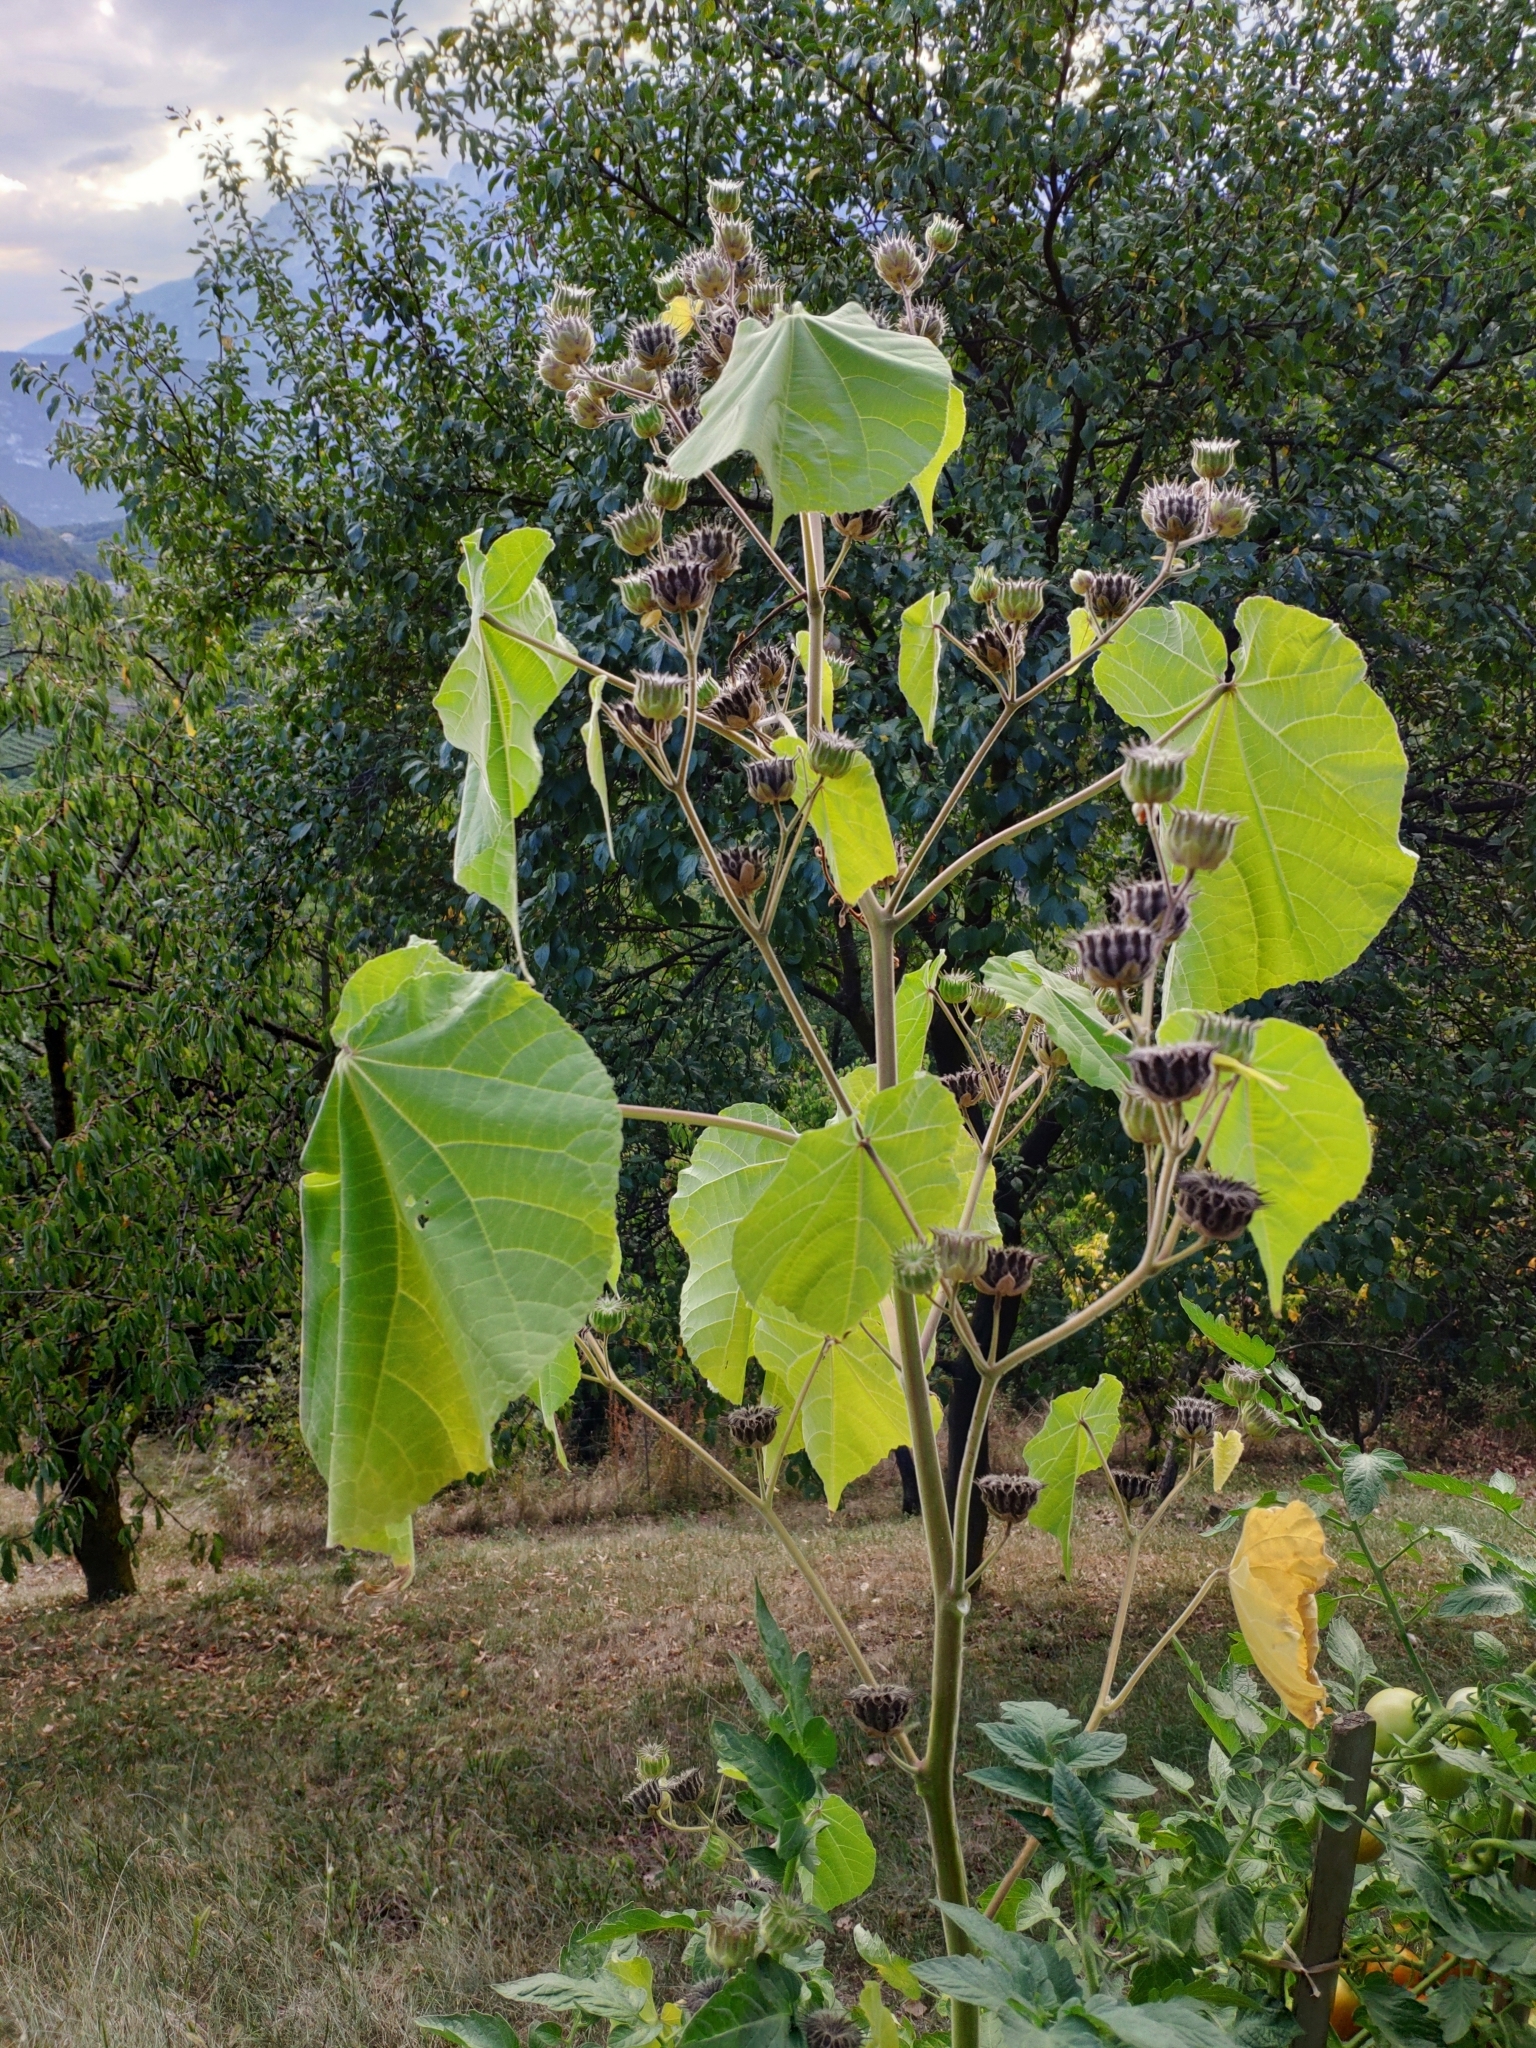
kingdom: Plantae
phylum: Tracheophyta
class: Magnoliopsida
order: Malvales
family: Malvaceae
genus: Abutilon
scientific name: Abutilon theophrasti
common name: Velvetleaf
